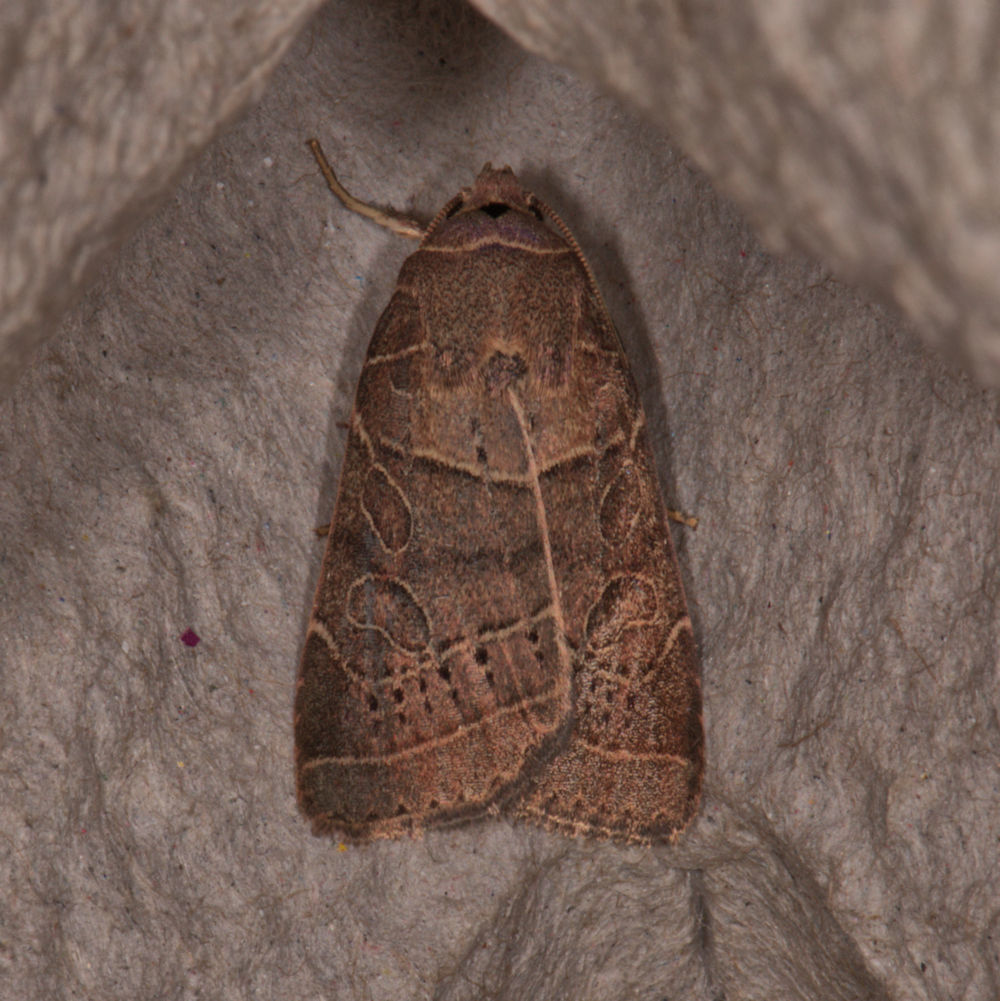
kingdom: Animalia
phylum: Arthropoda
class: Insecta
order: Lepidoptera
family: Noctuidae
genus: Orthodes
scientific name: Orthodes majuscula
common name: Rustic quaker
